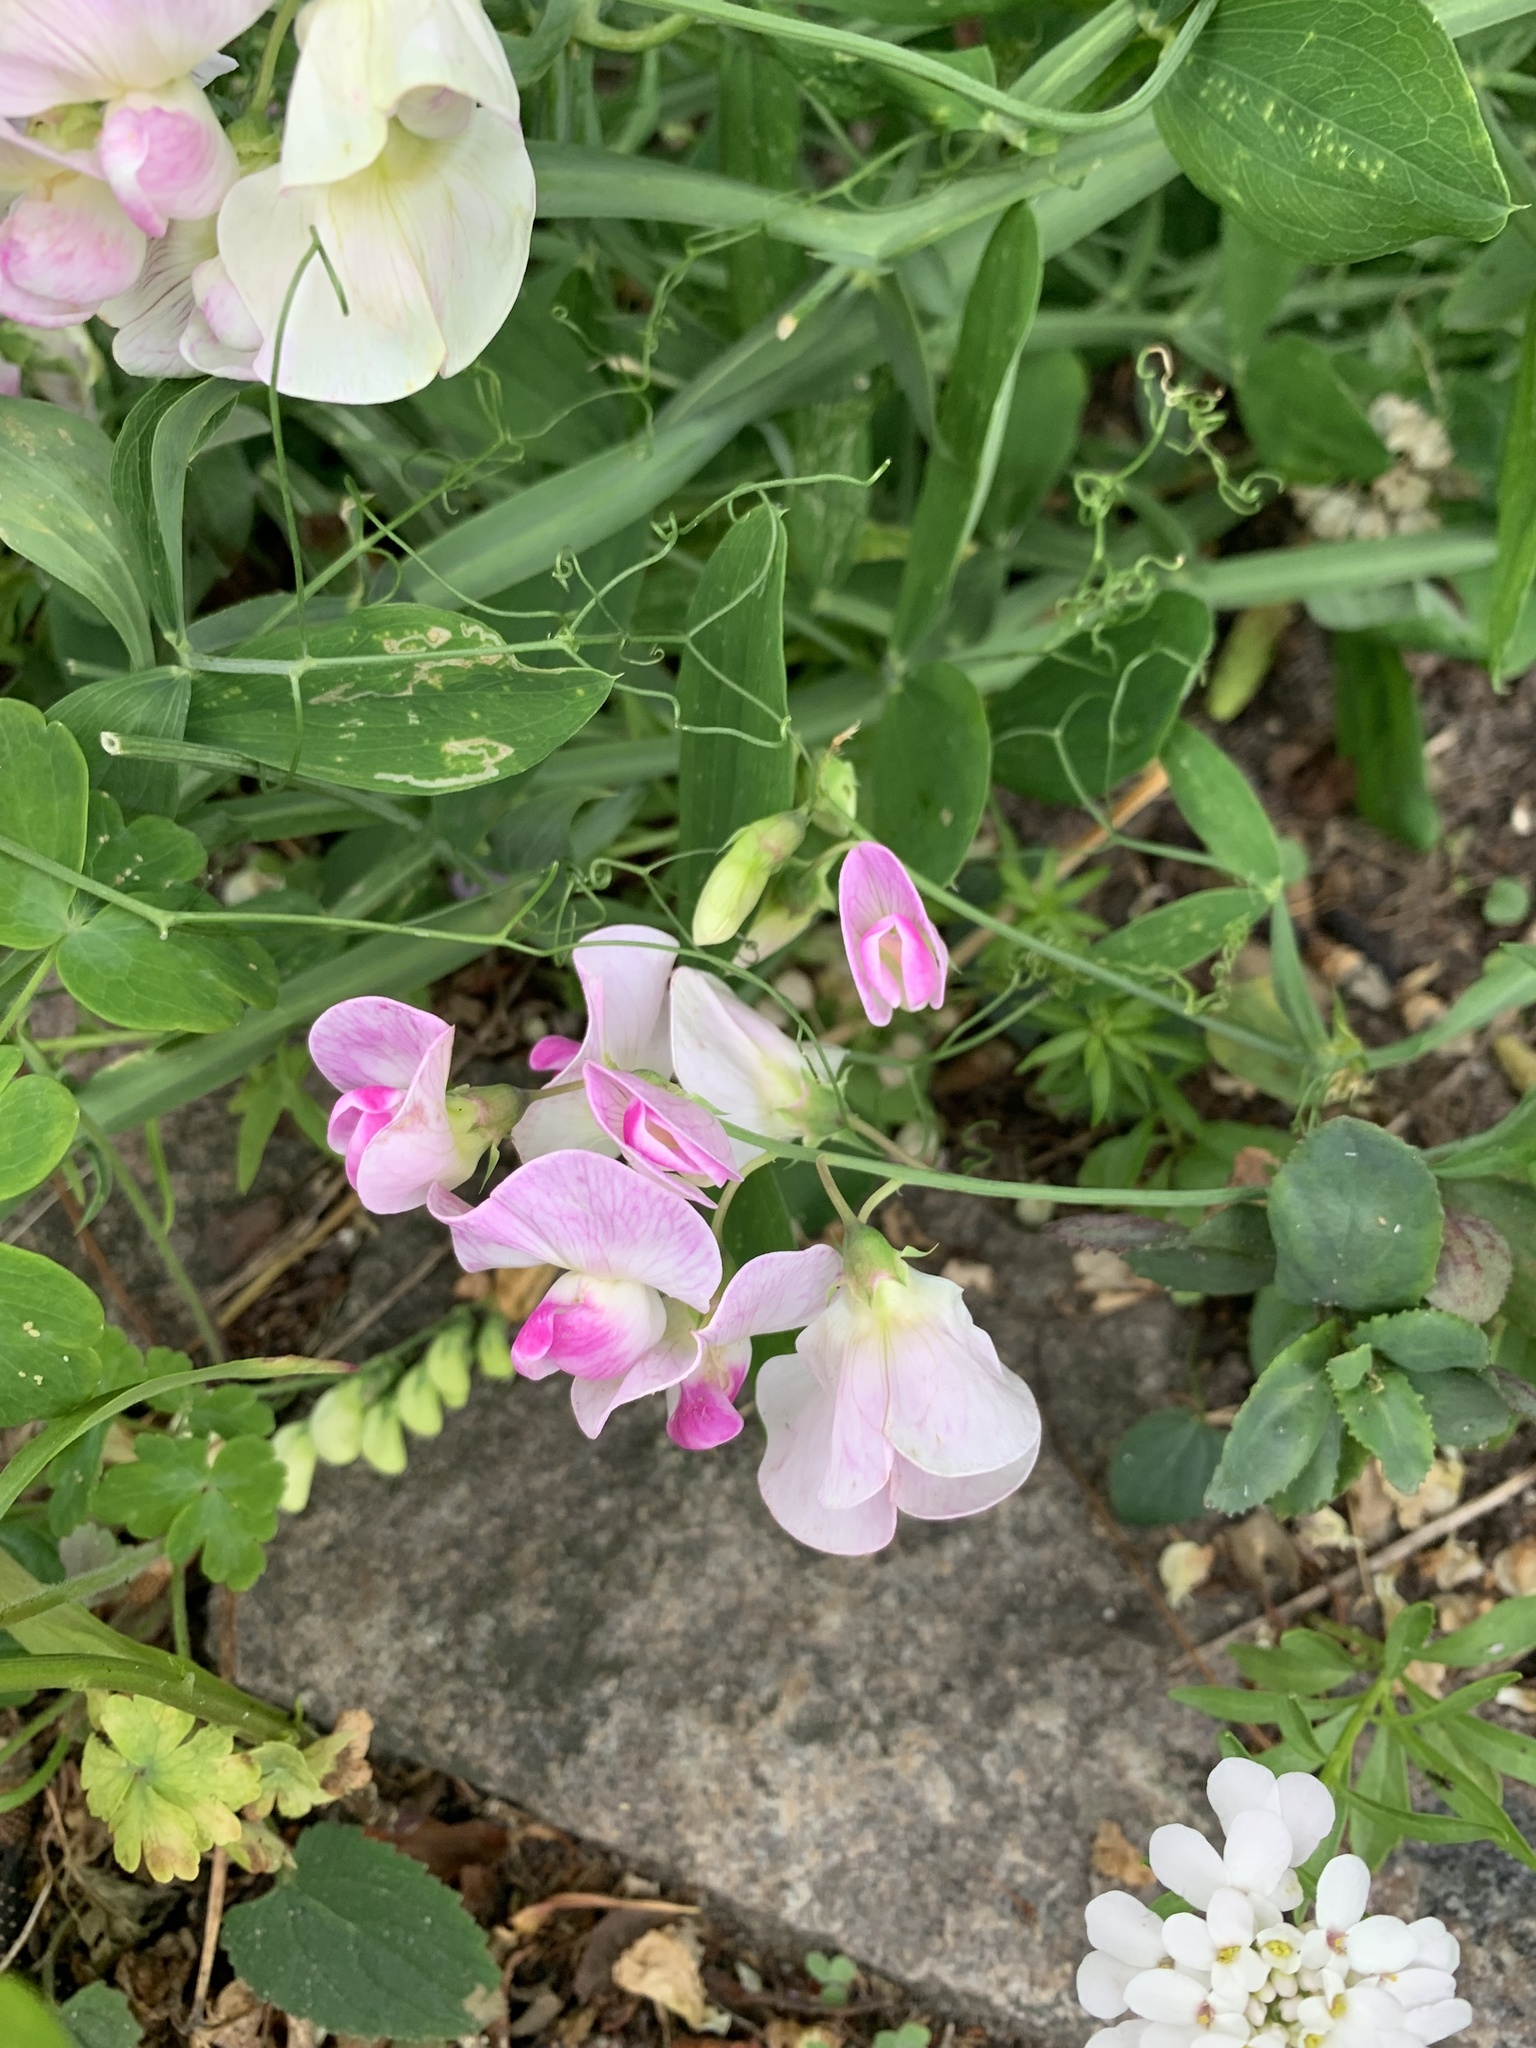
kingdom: Plantae
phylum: Tracheophyta
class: Magnoliopsida
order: Fabales
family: Fabaceae
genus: Lathyrus
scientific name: Lathyrus latifolius
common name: Perennial pea
